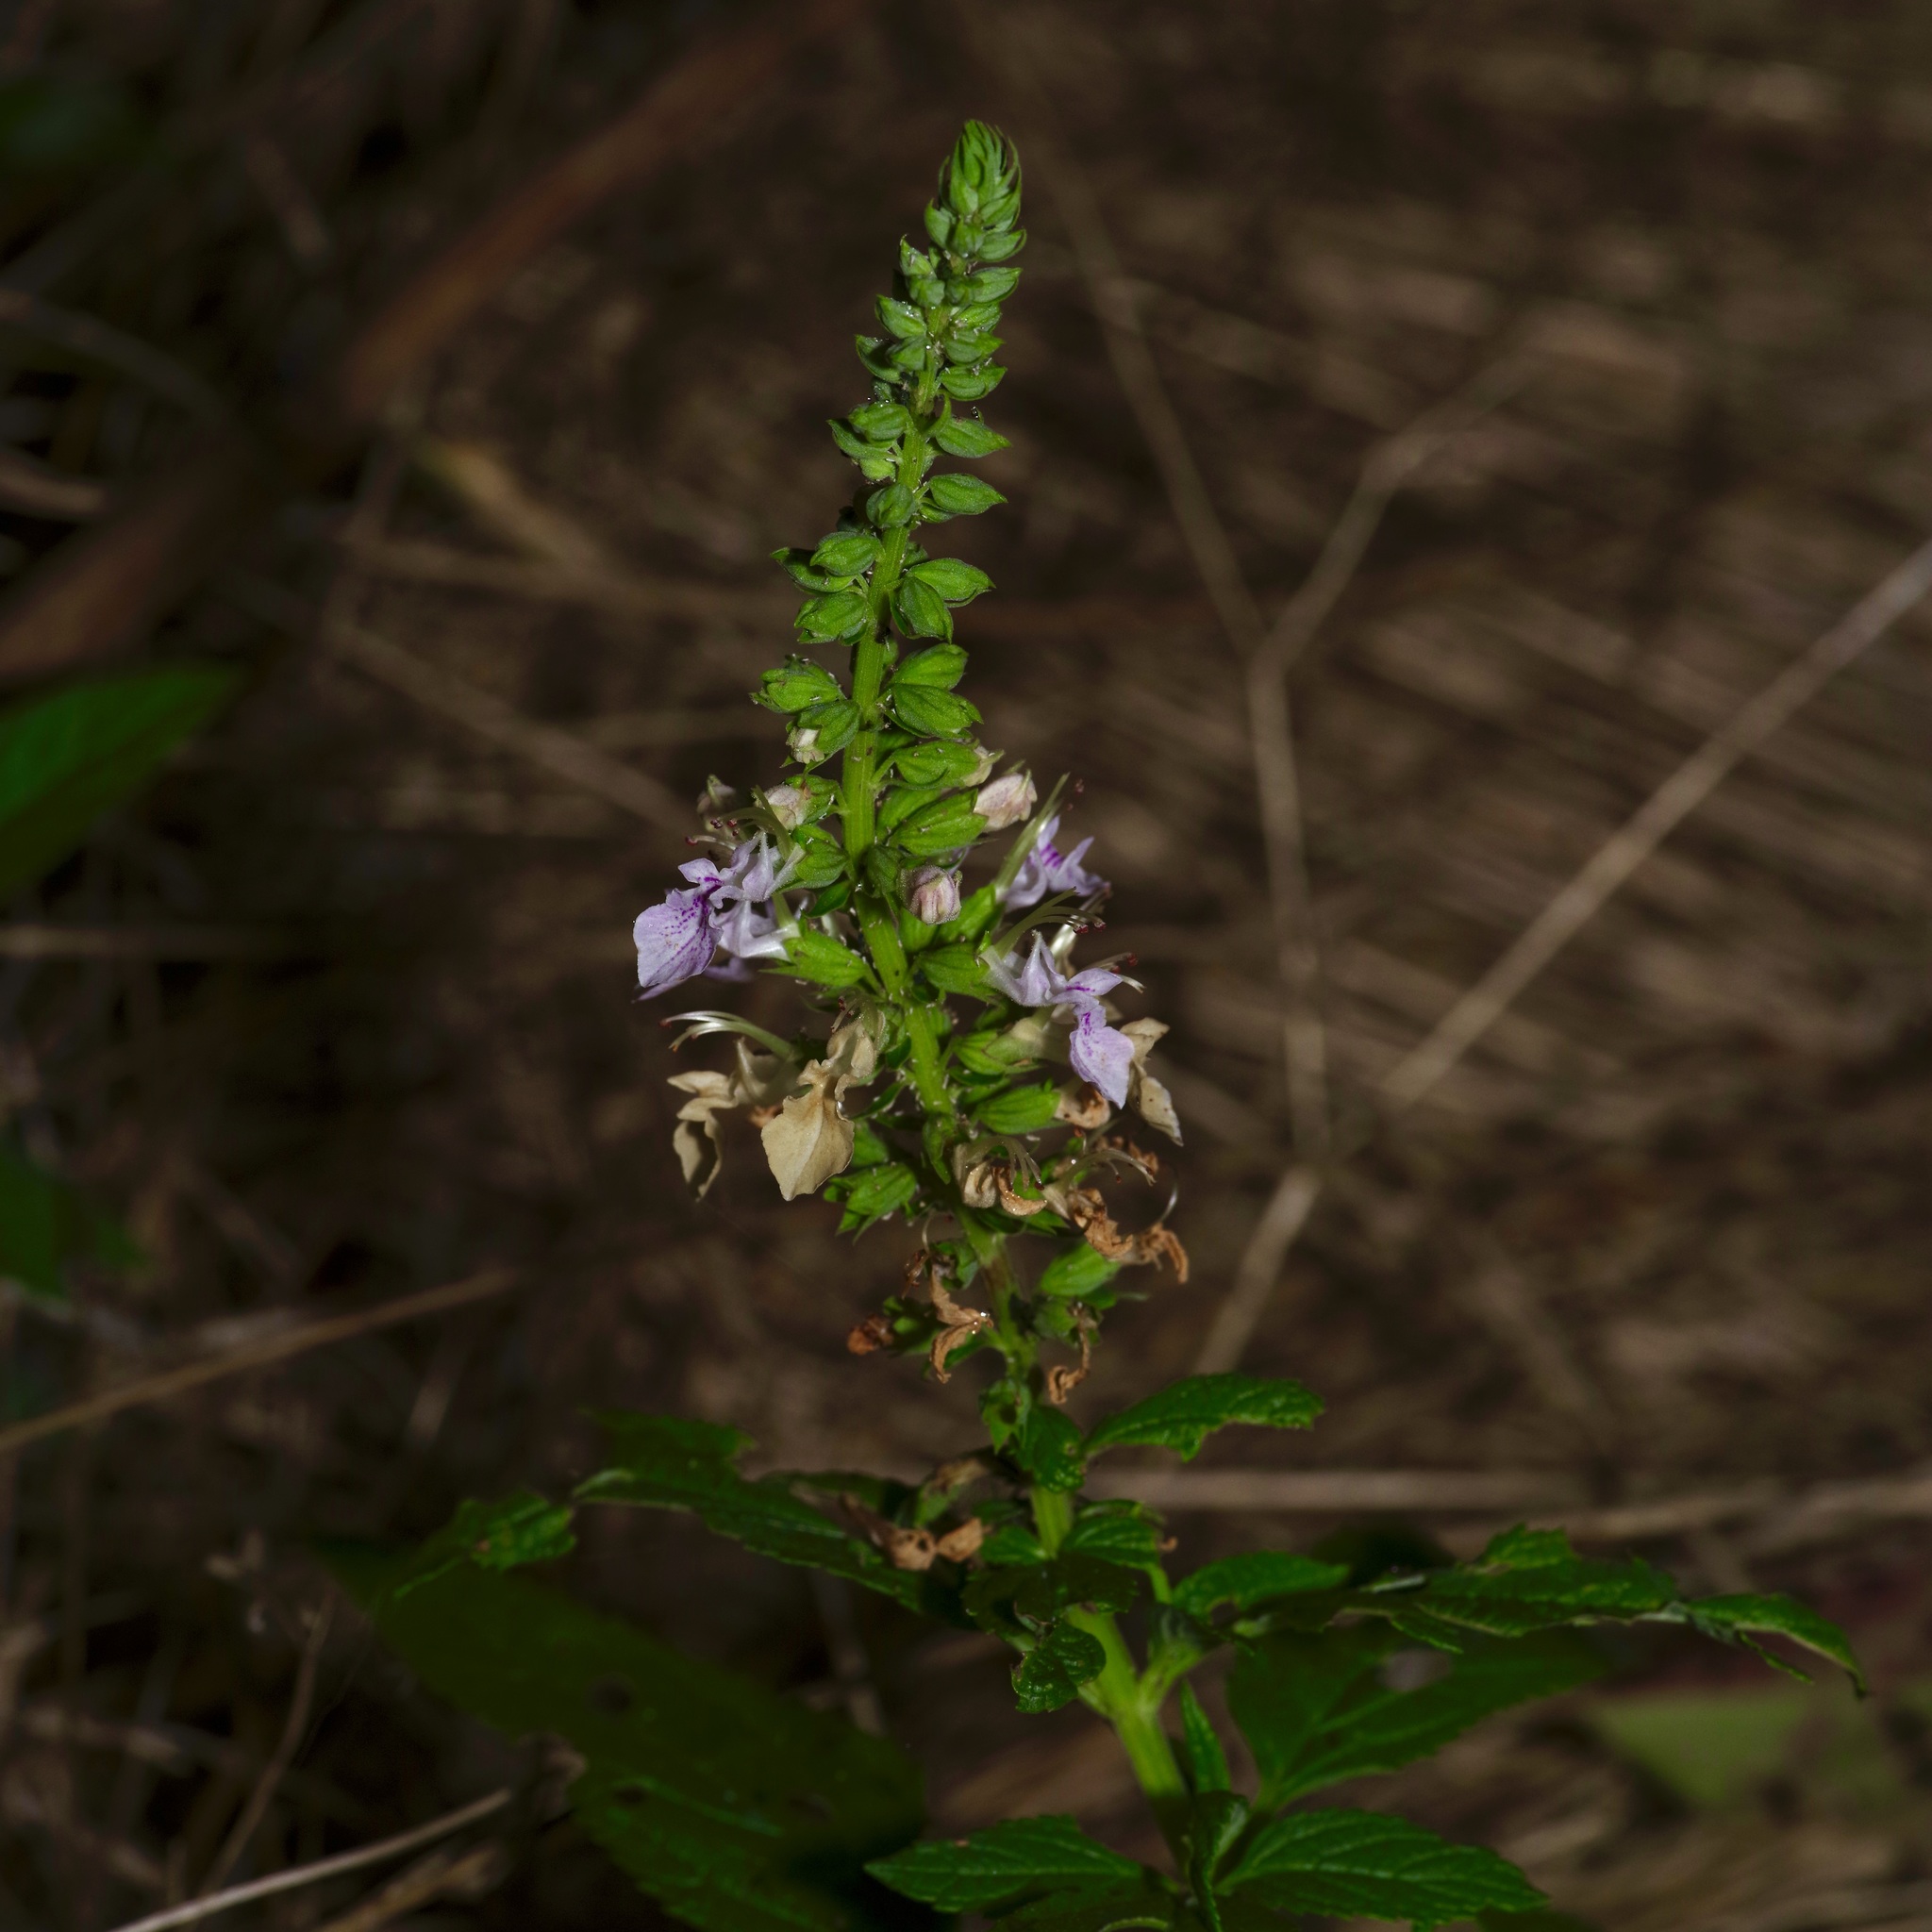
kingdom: Plantae
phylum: Tracheophyta
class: Magnoliopsida
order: Lamiales
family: Lamiaceae
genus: Teucrium
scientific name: Teucrium canadense
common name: American germander
